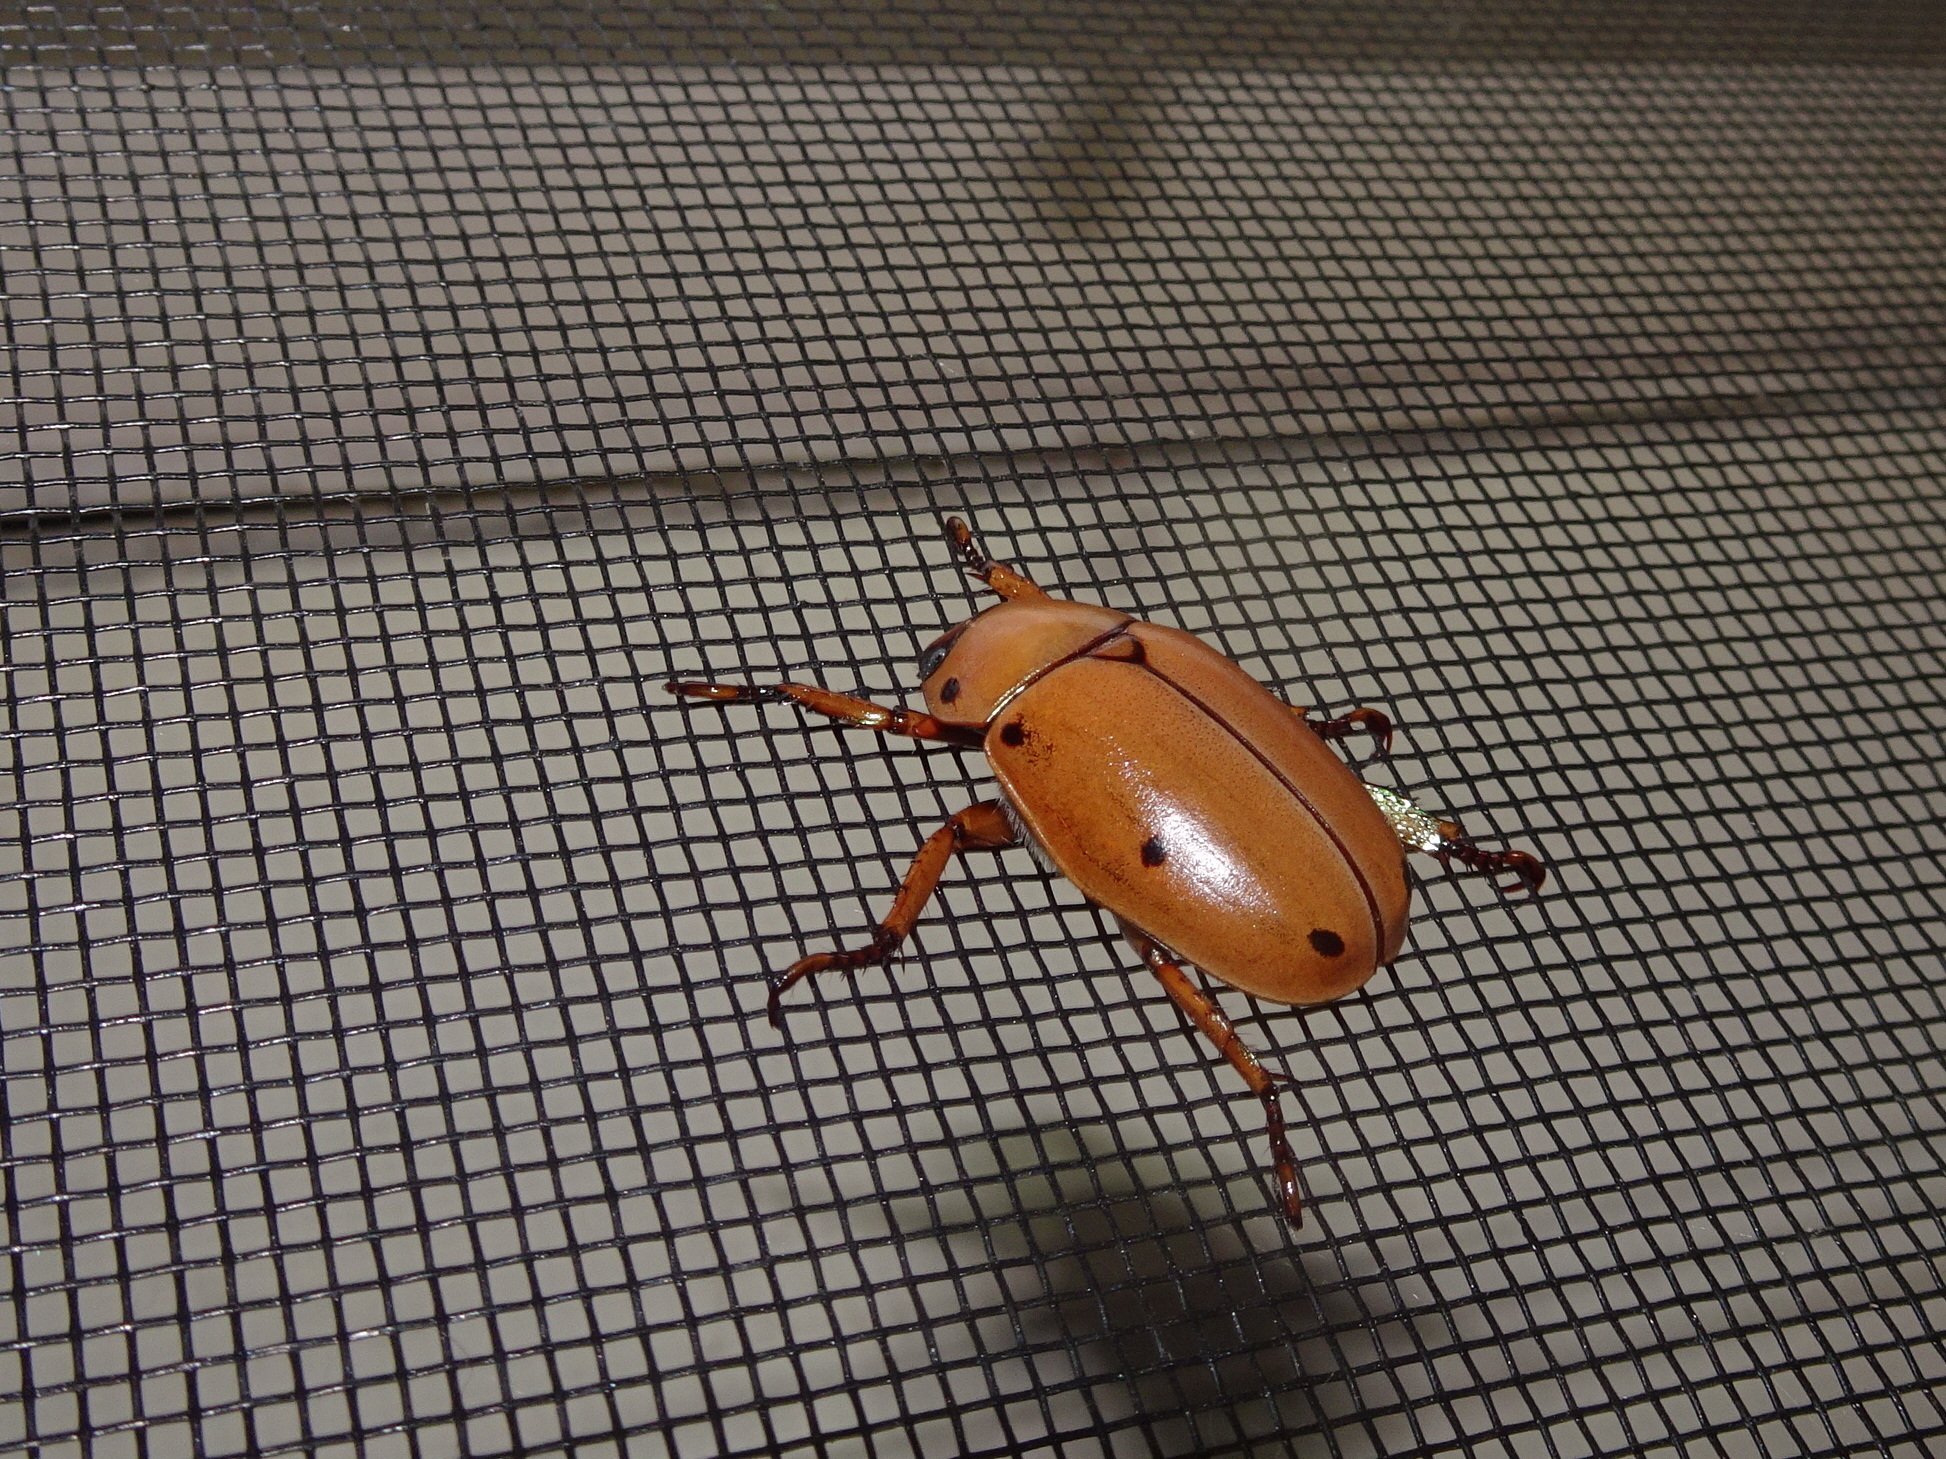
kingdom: Animalia
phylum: Arthropoda
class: Insecta
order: Coleoptera
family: Scarabaeidae
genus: Pelidnota
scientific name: Pelidnota punctata
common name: Grapevine beetle
